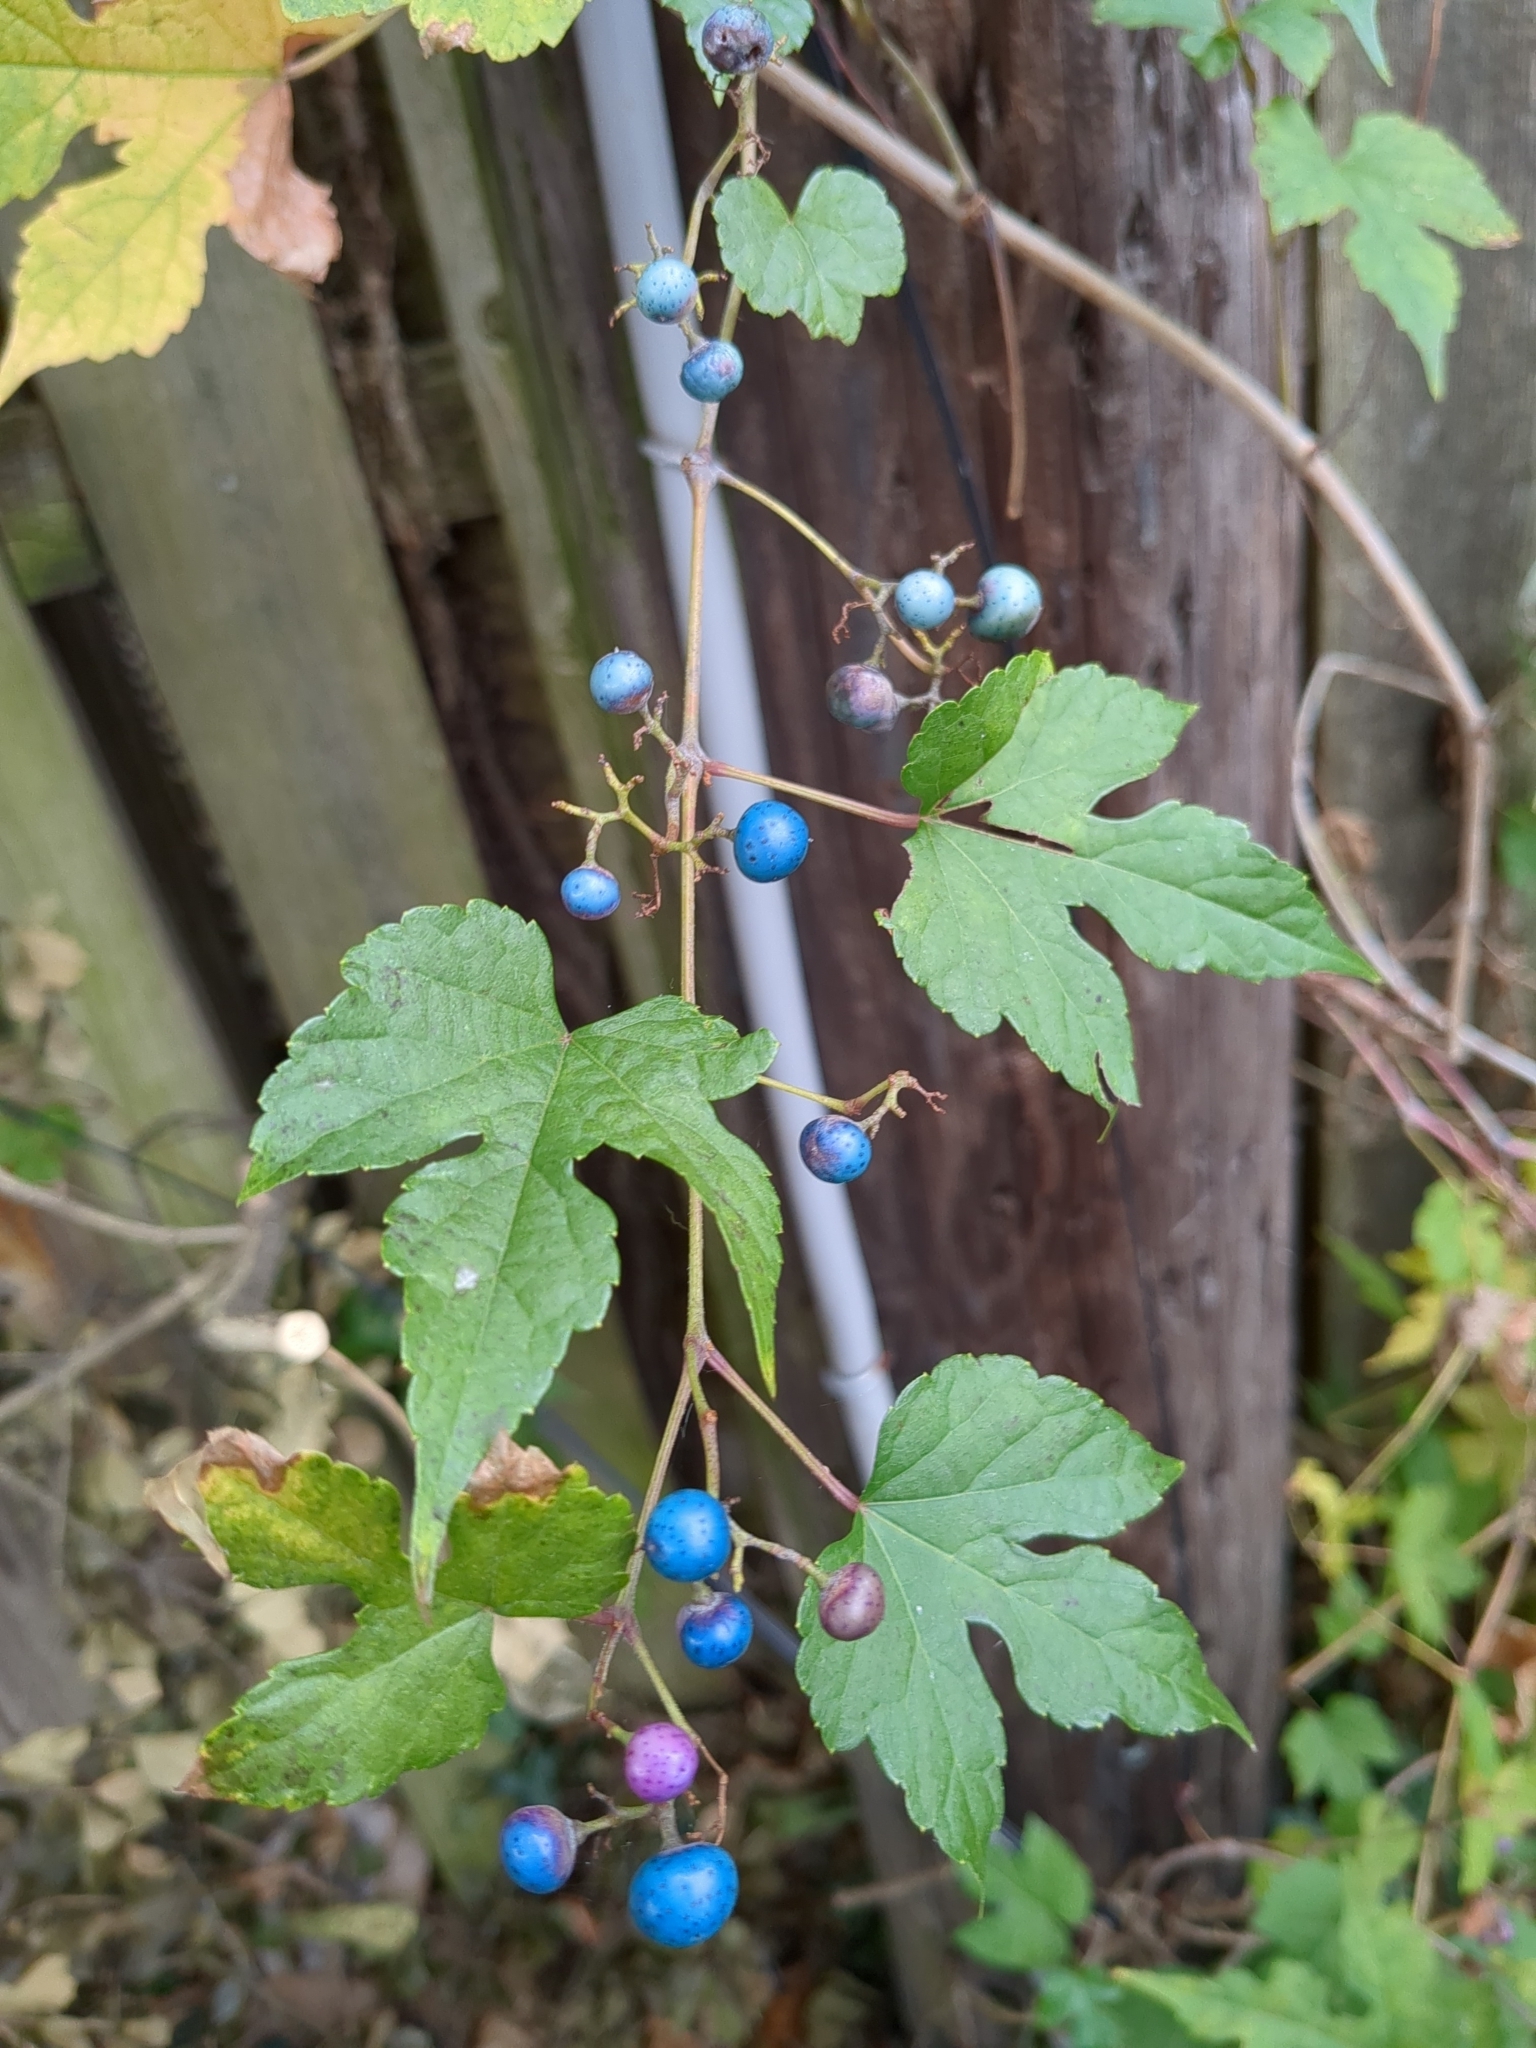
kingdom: Plantae
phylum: Tracheophyta
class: Magnoliopsida
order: Vitales
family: Vitaceae
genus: Ampelopsis
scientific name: Ampelopsis glandulosa
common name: Amur peppervine
